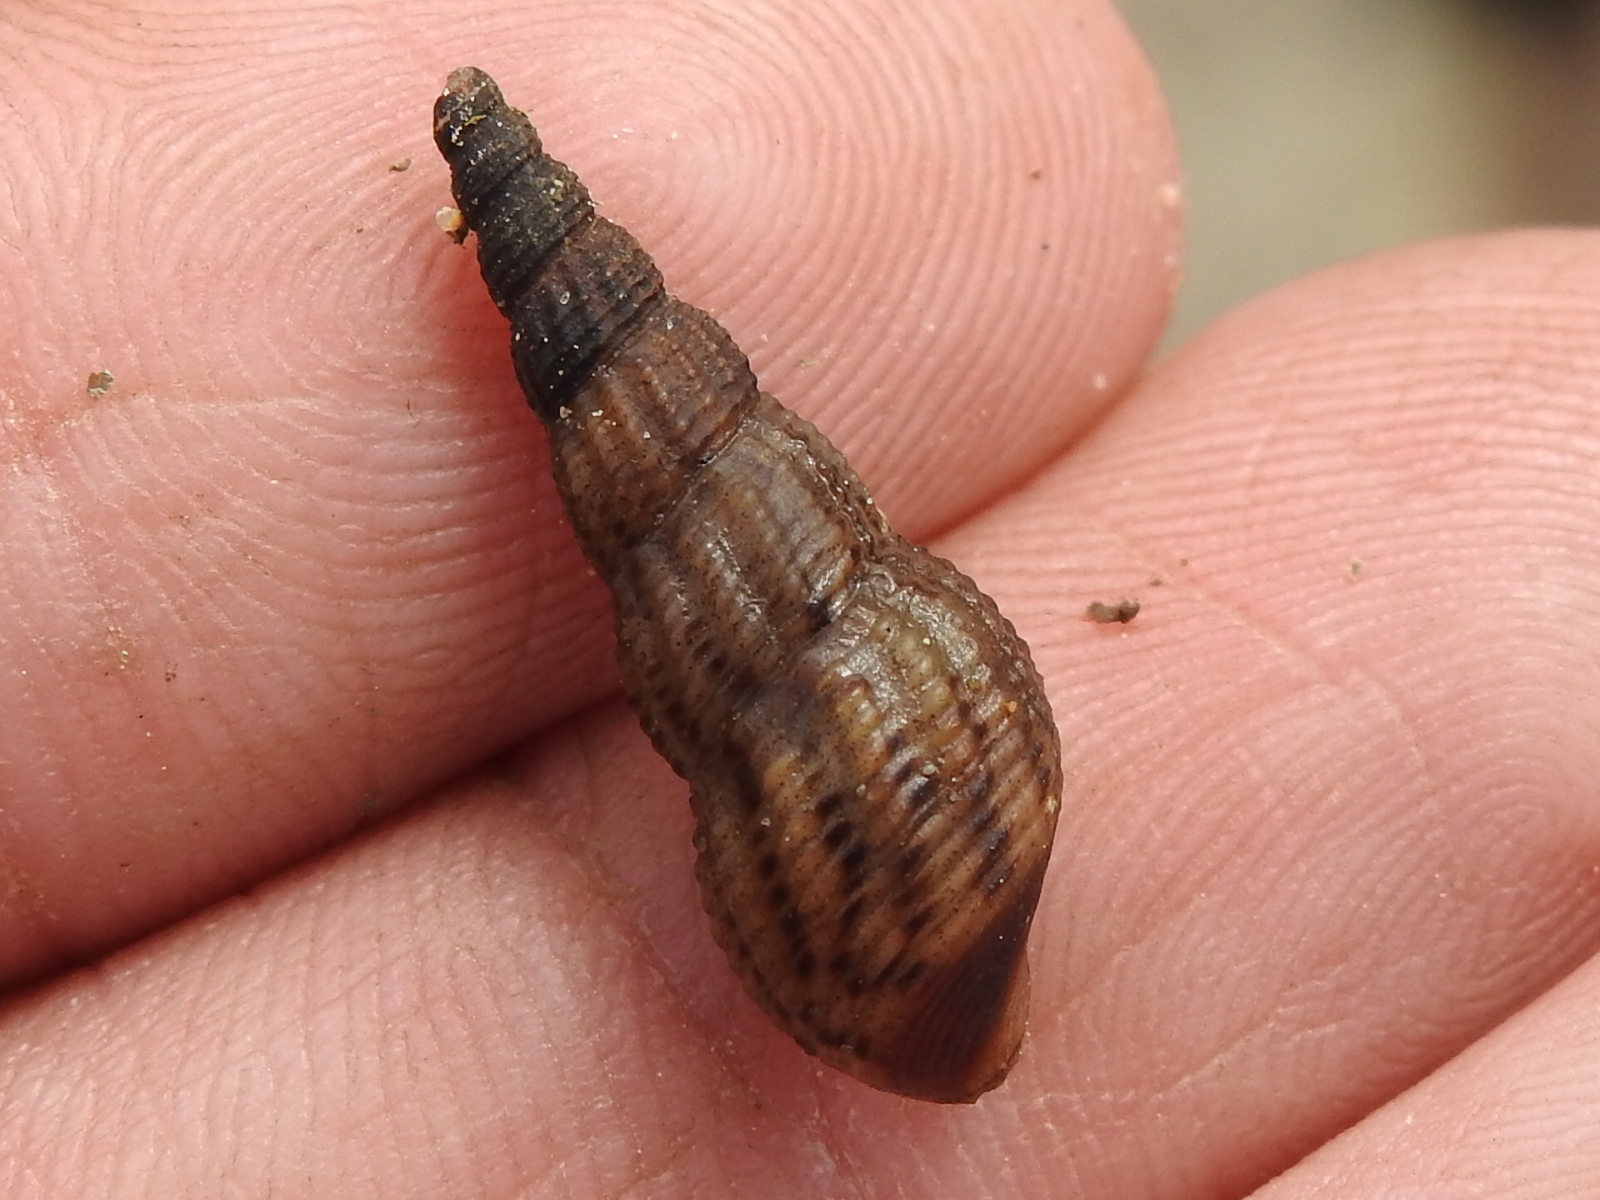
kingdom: Animalia
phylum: Mollusca
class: Gastropoda
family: Thiaridae
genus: Melanoides
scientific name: Melanoides tuberculata
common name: Red-rim melania
